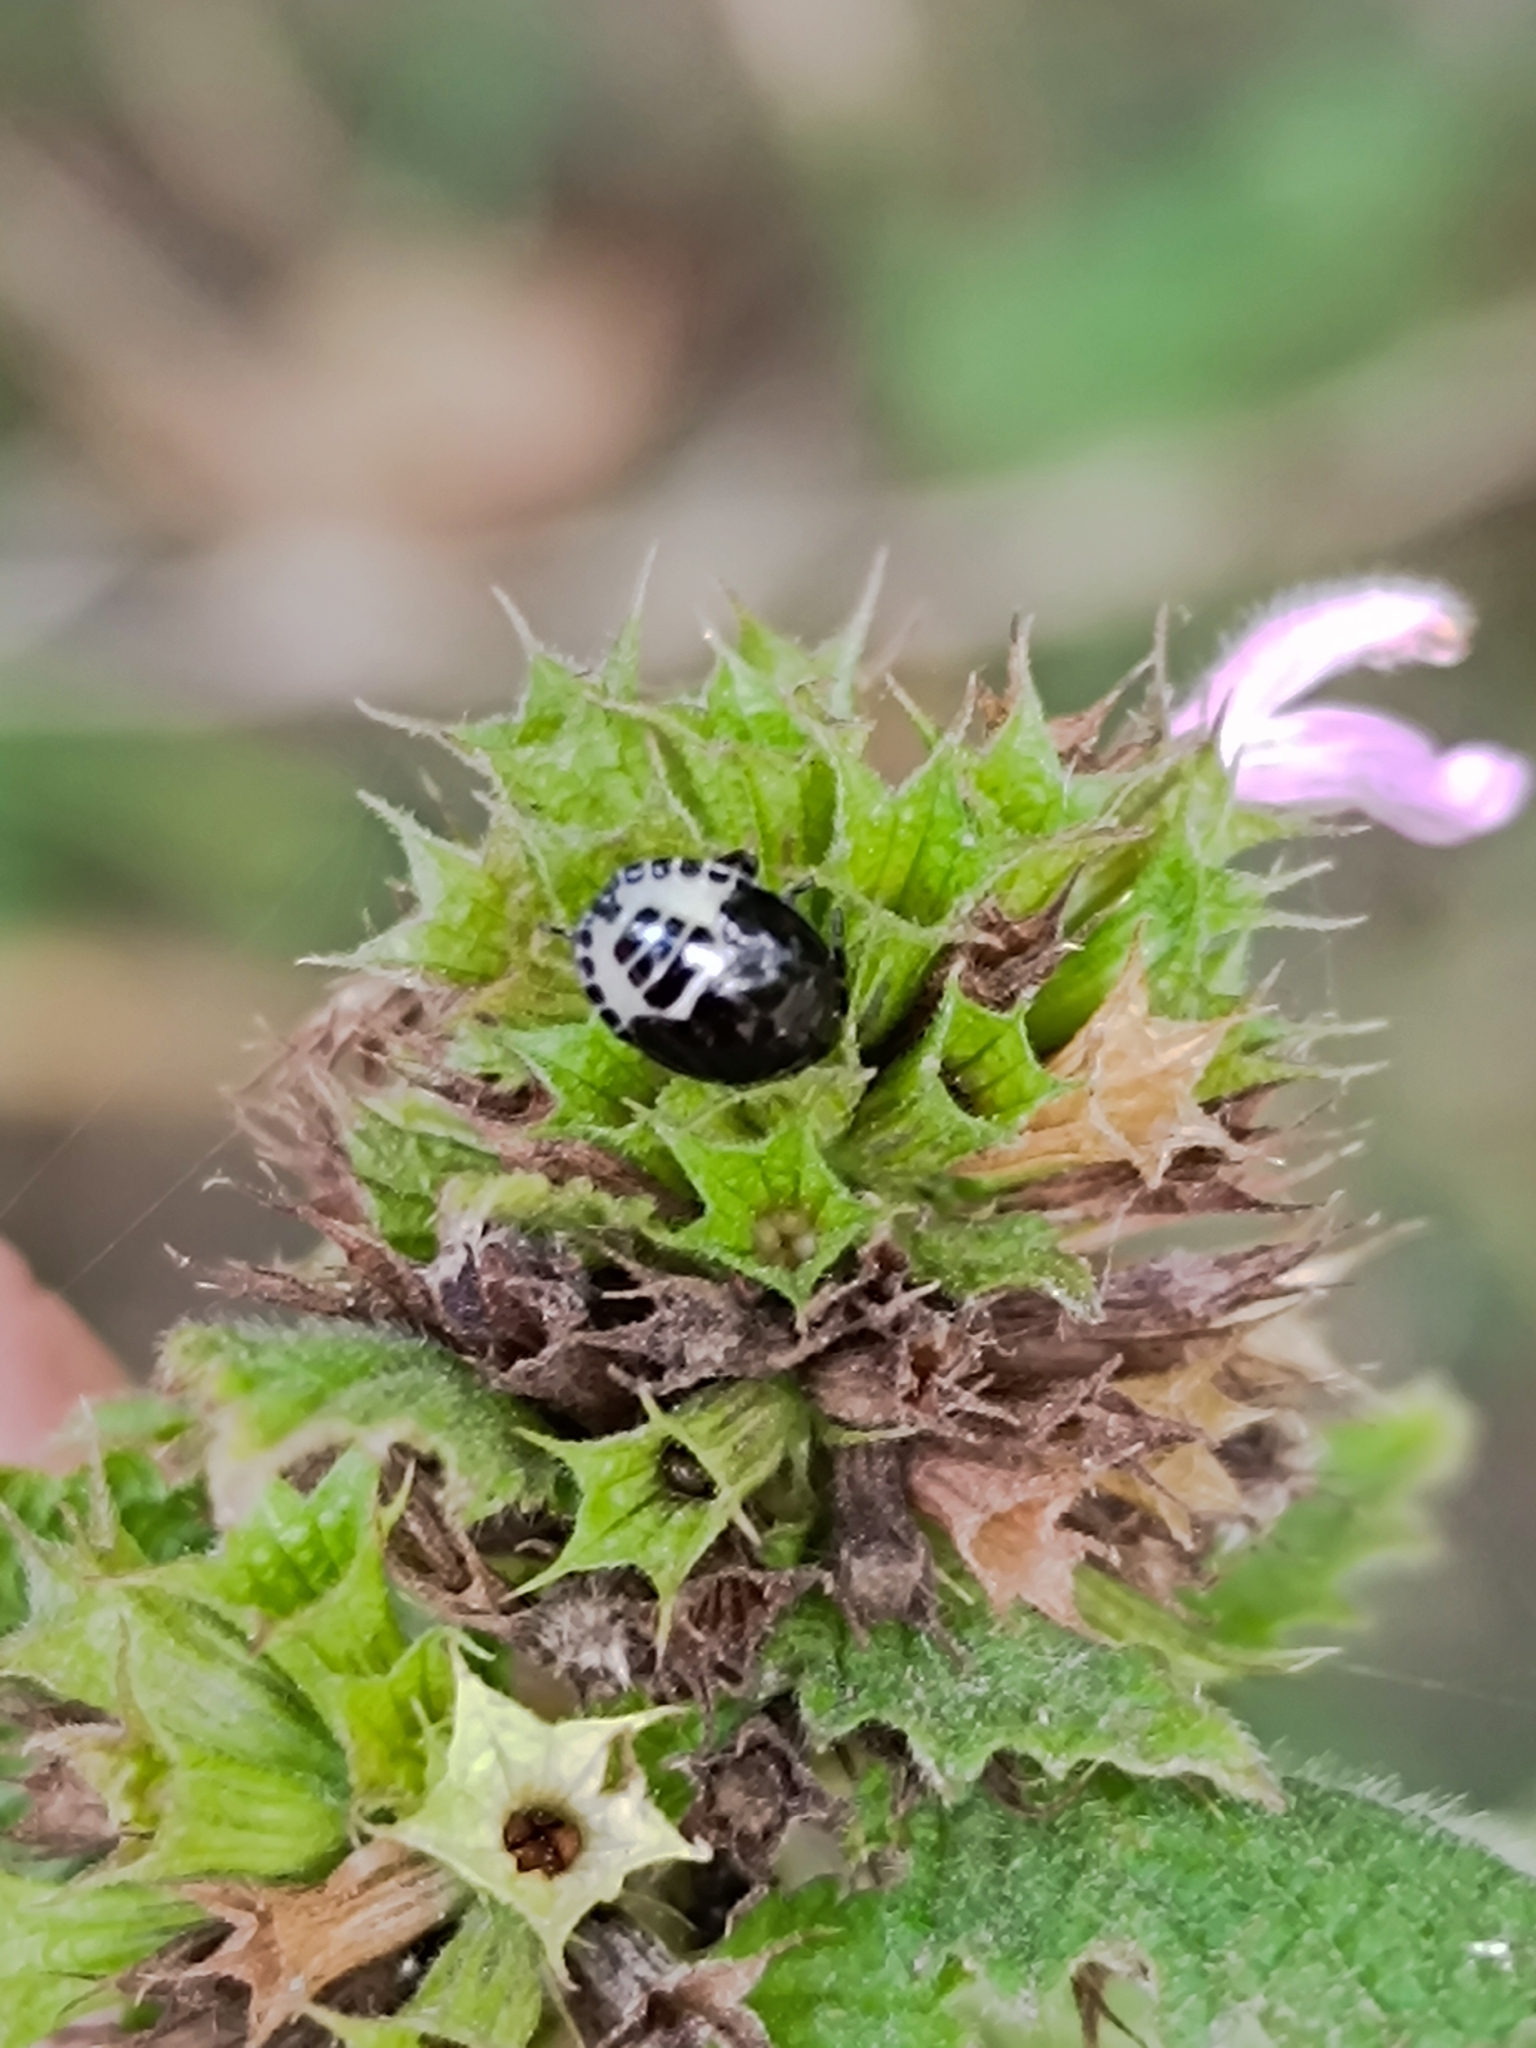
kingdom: Animalia
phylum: Arthropoda
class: Insecta
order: Hemiptera
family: Cydnidae
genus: Tritomegas
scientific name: Tritomegas sexmaculatus
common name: Rambur's pied shieldbug
